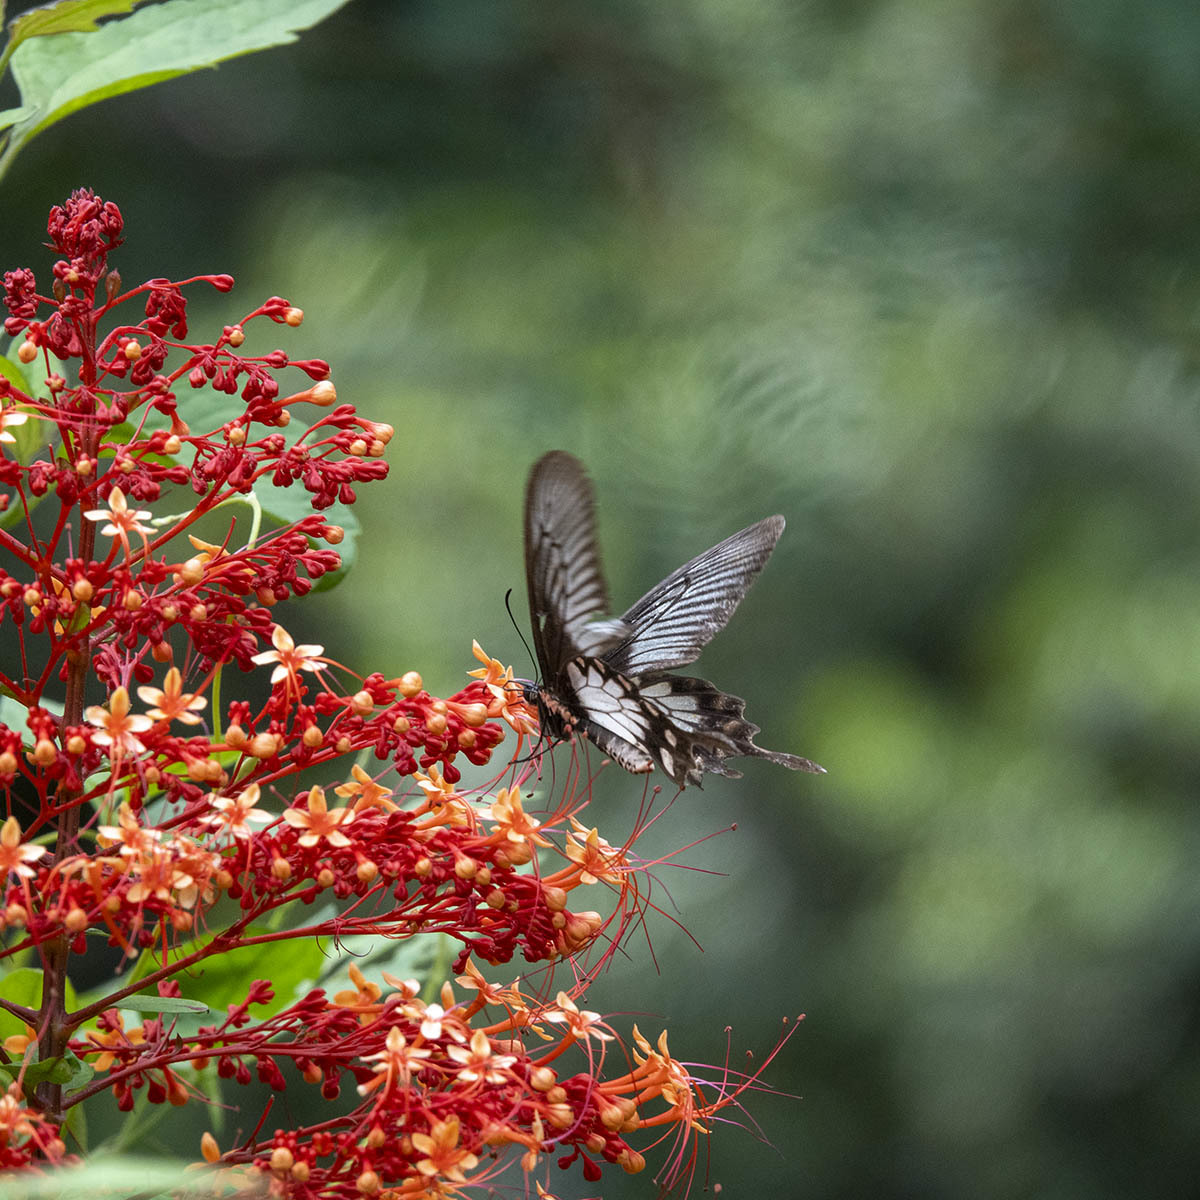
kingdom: Animalia
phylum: Arthropoda
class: Insecta
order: Lepidoptera
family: Papilionidae
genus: Pachliopta
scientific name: Pachliopta pandiyana
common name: Malabar rose
